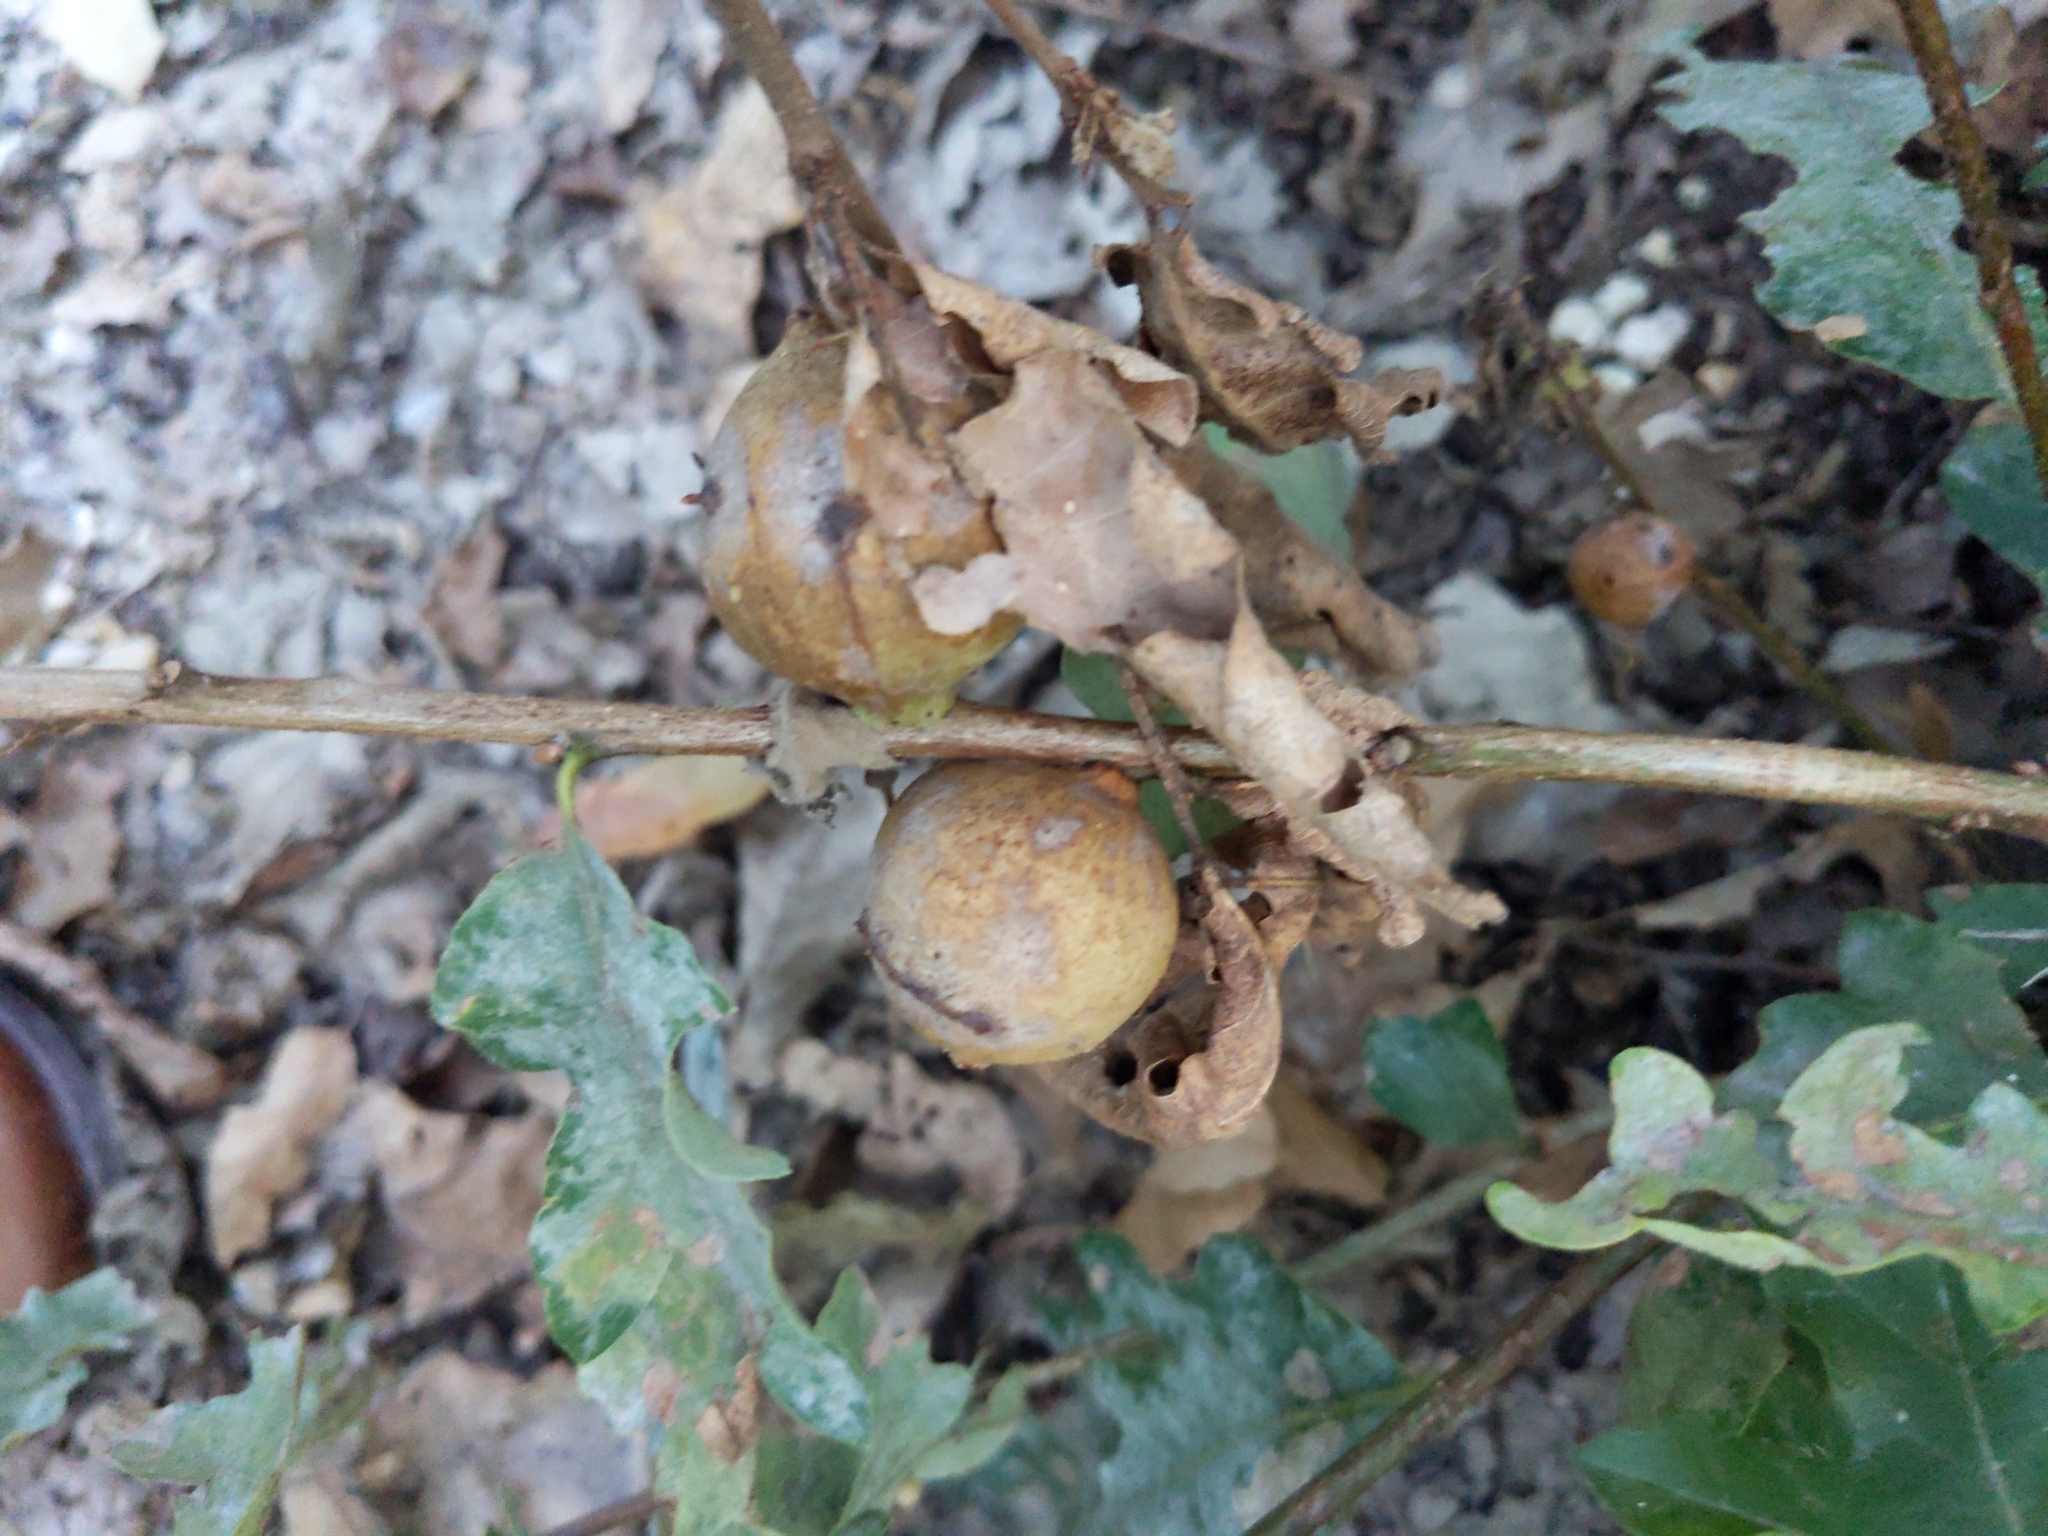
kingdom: Animalia
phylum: Arthropoda
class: Insecta
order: Hymenoptera
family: Cynipidae
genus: Andricus
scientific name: Andricus quercustozae
